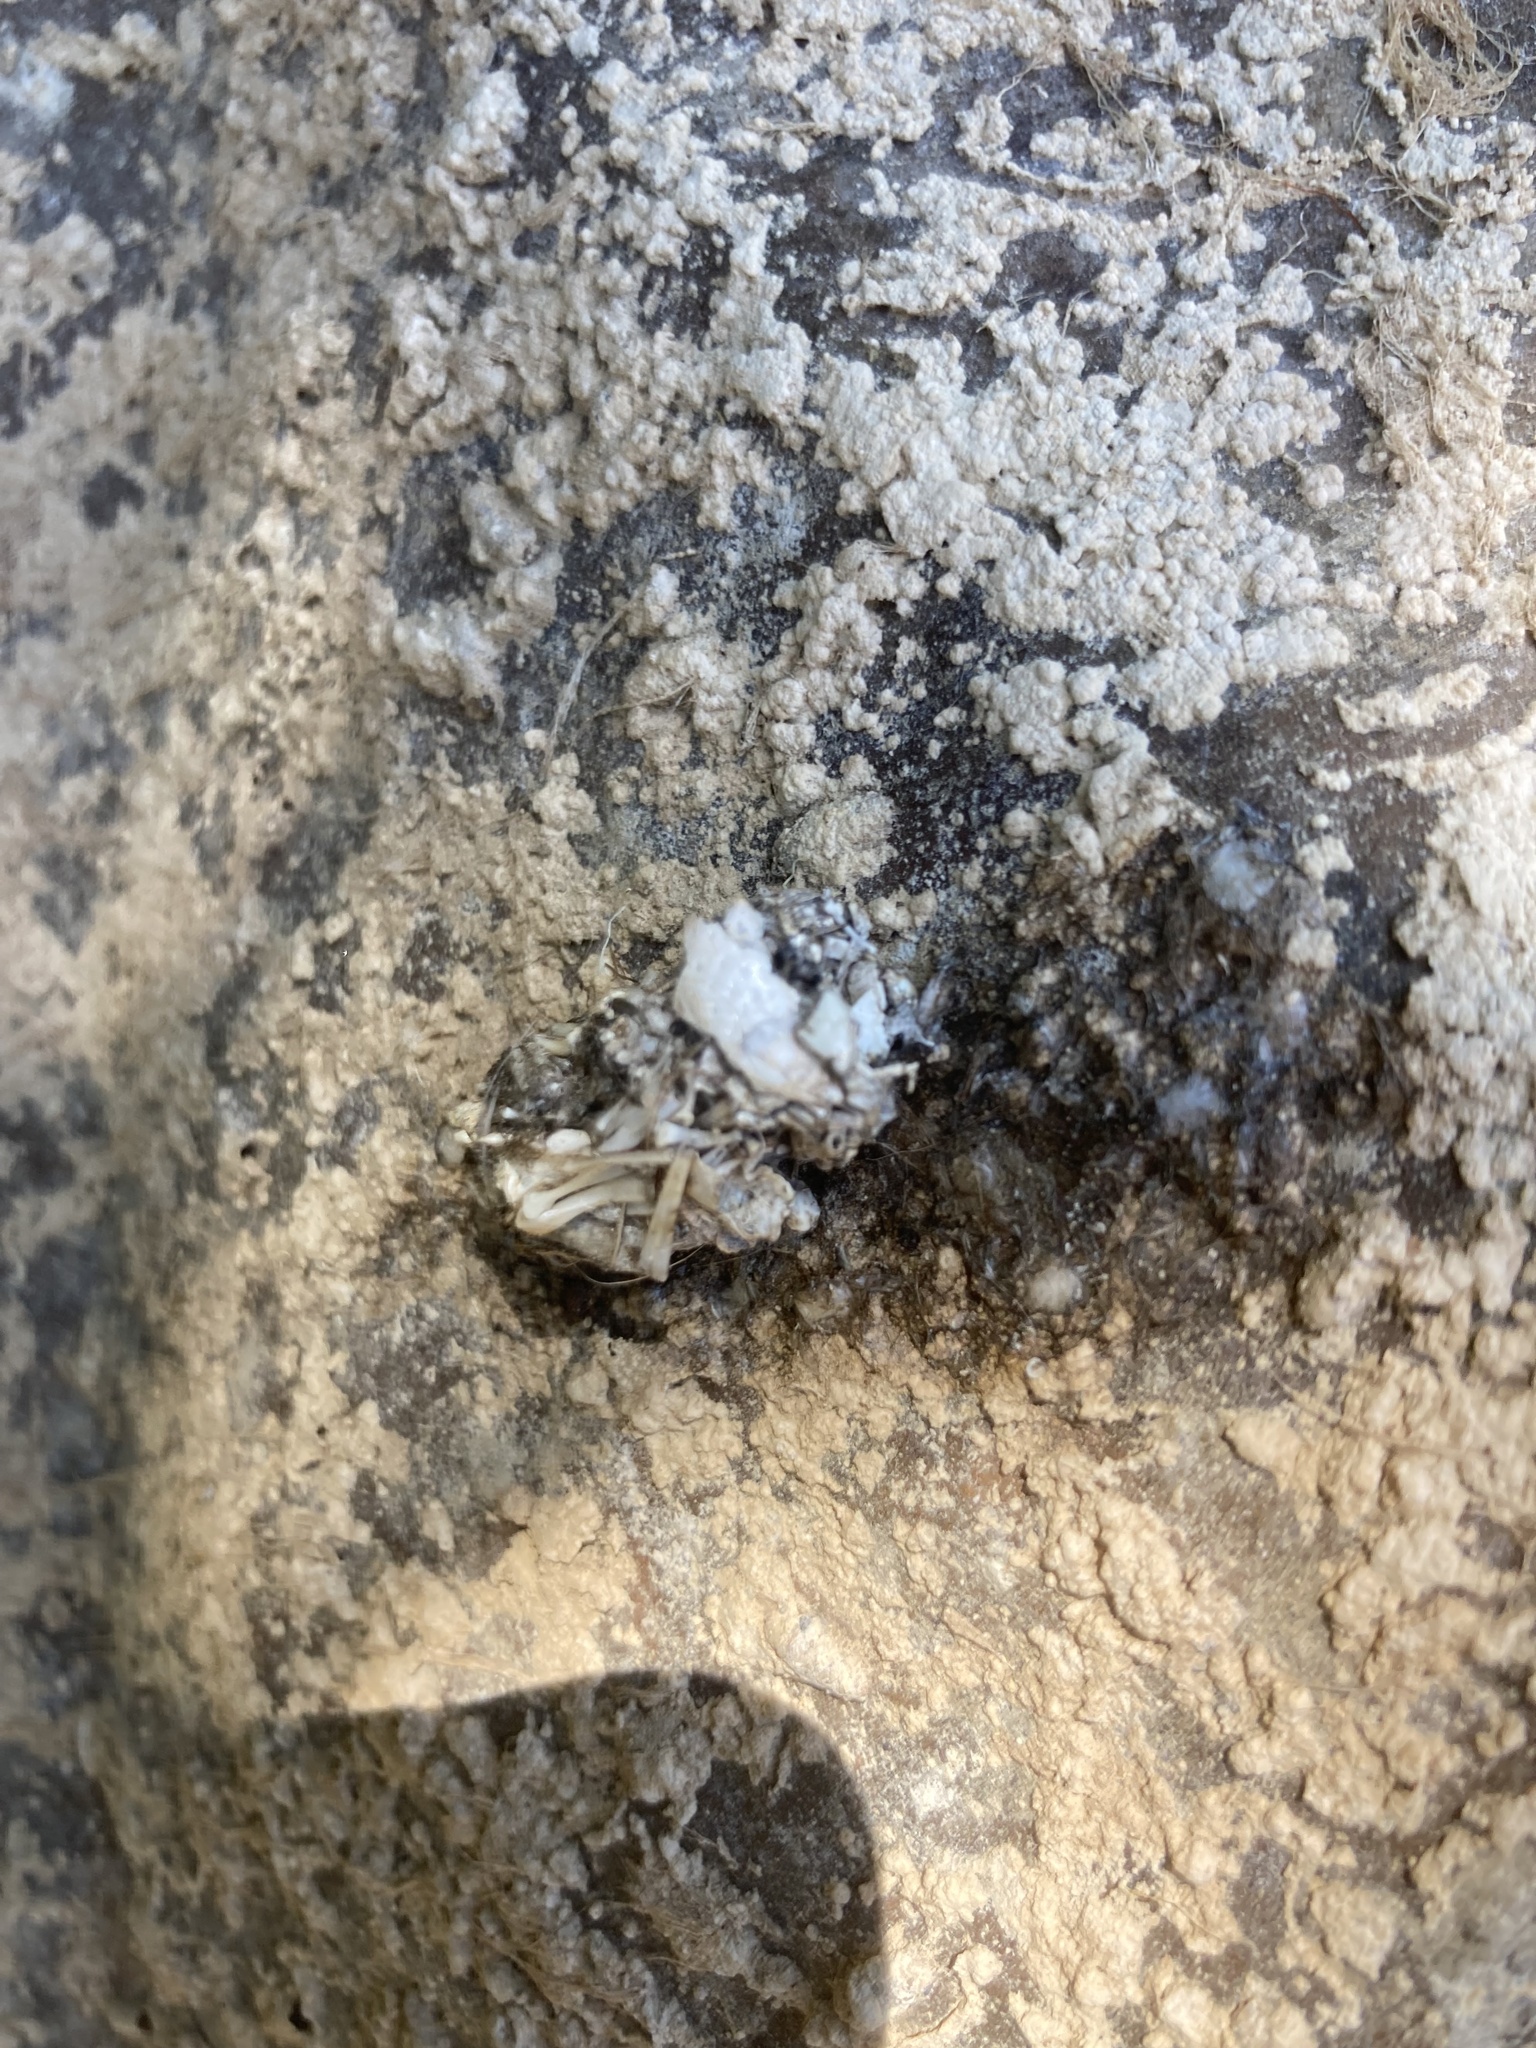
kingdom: Animalia
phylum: Chordata
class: Mammalia
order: Carnivora
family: Mustelidae
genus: Lutra
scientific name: Lutra lutra
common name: European otter
